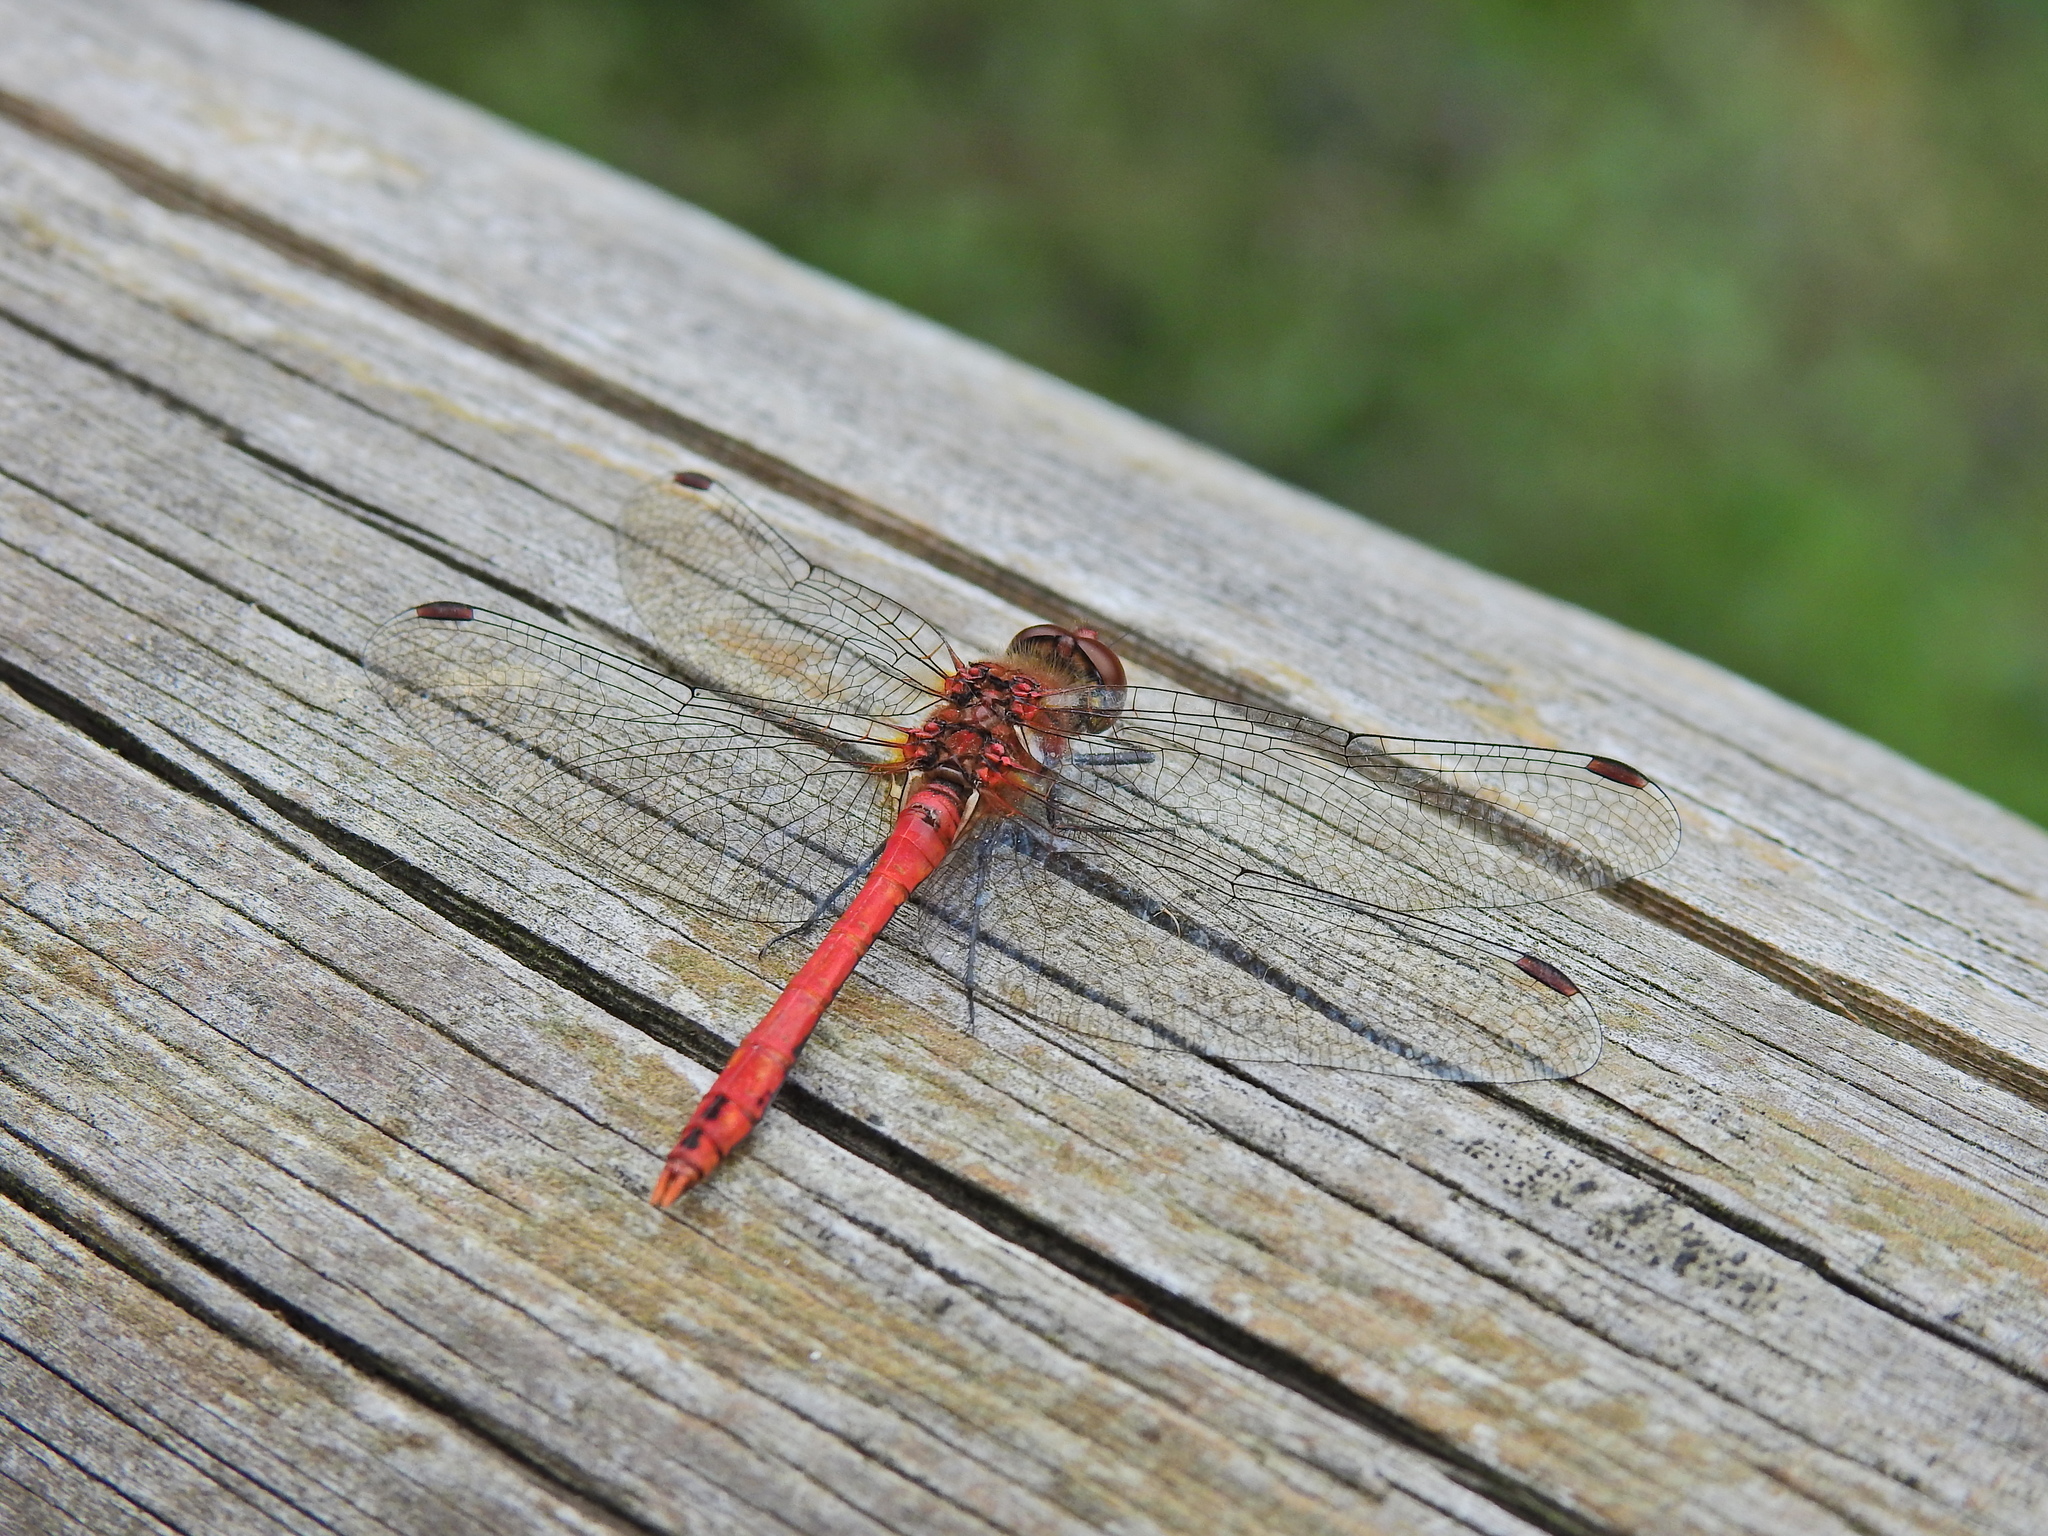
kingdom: Animalia
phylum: Arthropoda
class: Insecta
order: Odonata
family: Libellulidae
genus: Sympetrum
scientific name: Sympetrum sanguineum
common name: Ruddy darter
